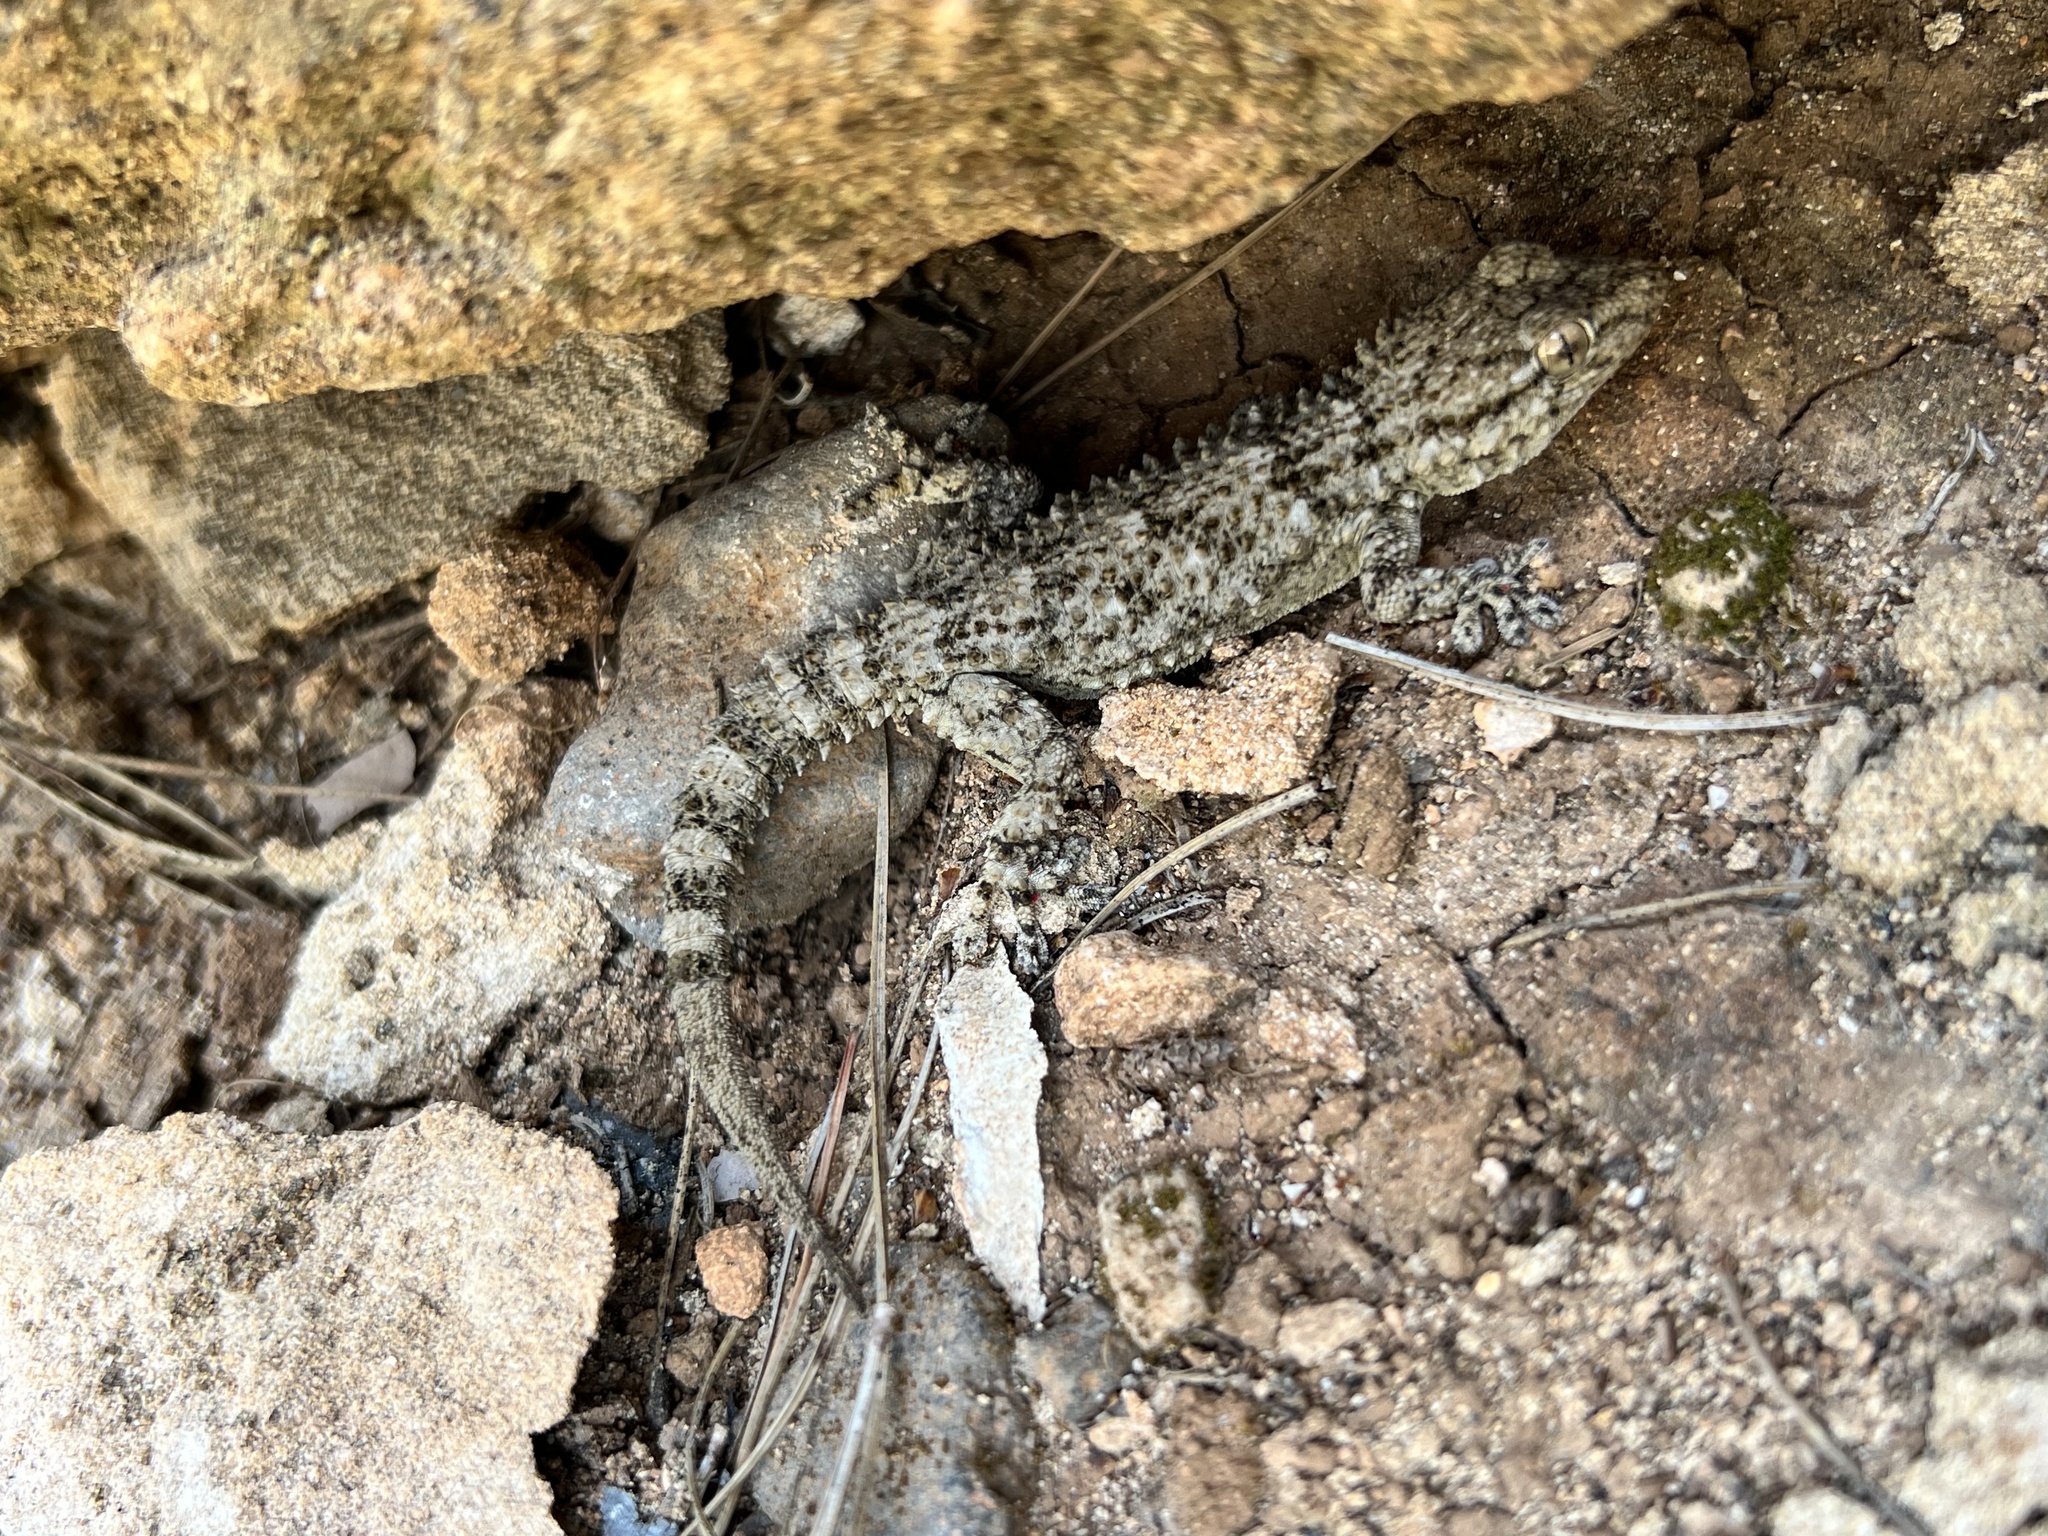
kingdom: Animalia
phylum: Chordata
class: Squamata
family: Phyllodactylidae
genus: Tarentola
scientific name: Tarentola mauritanica
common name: Moorish gecko
